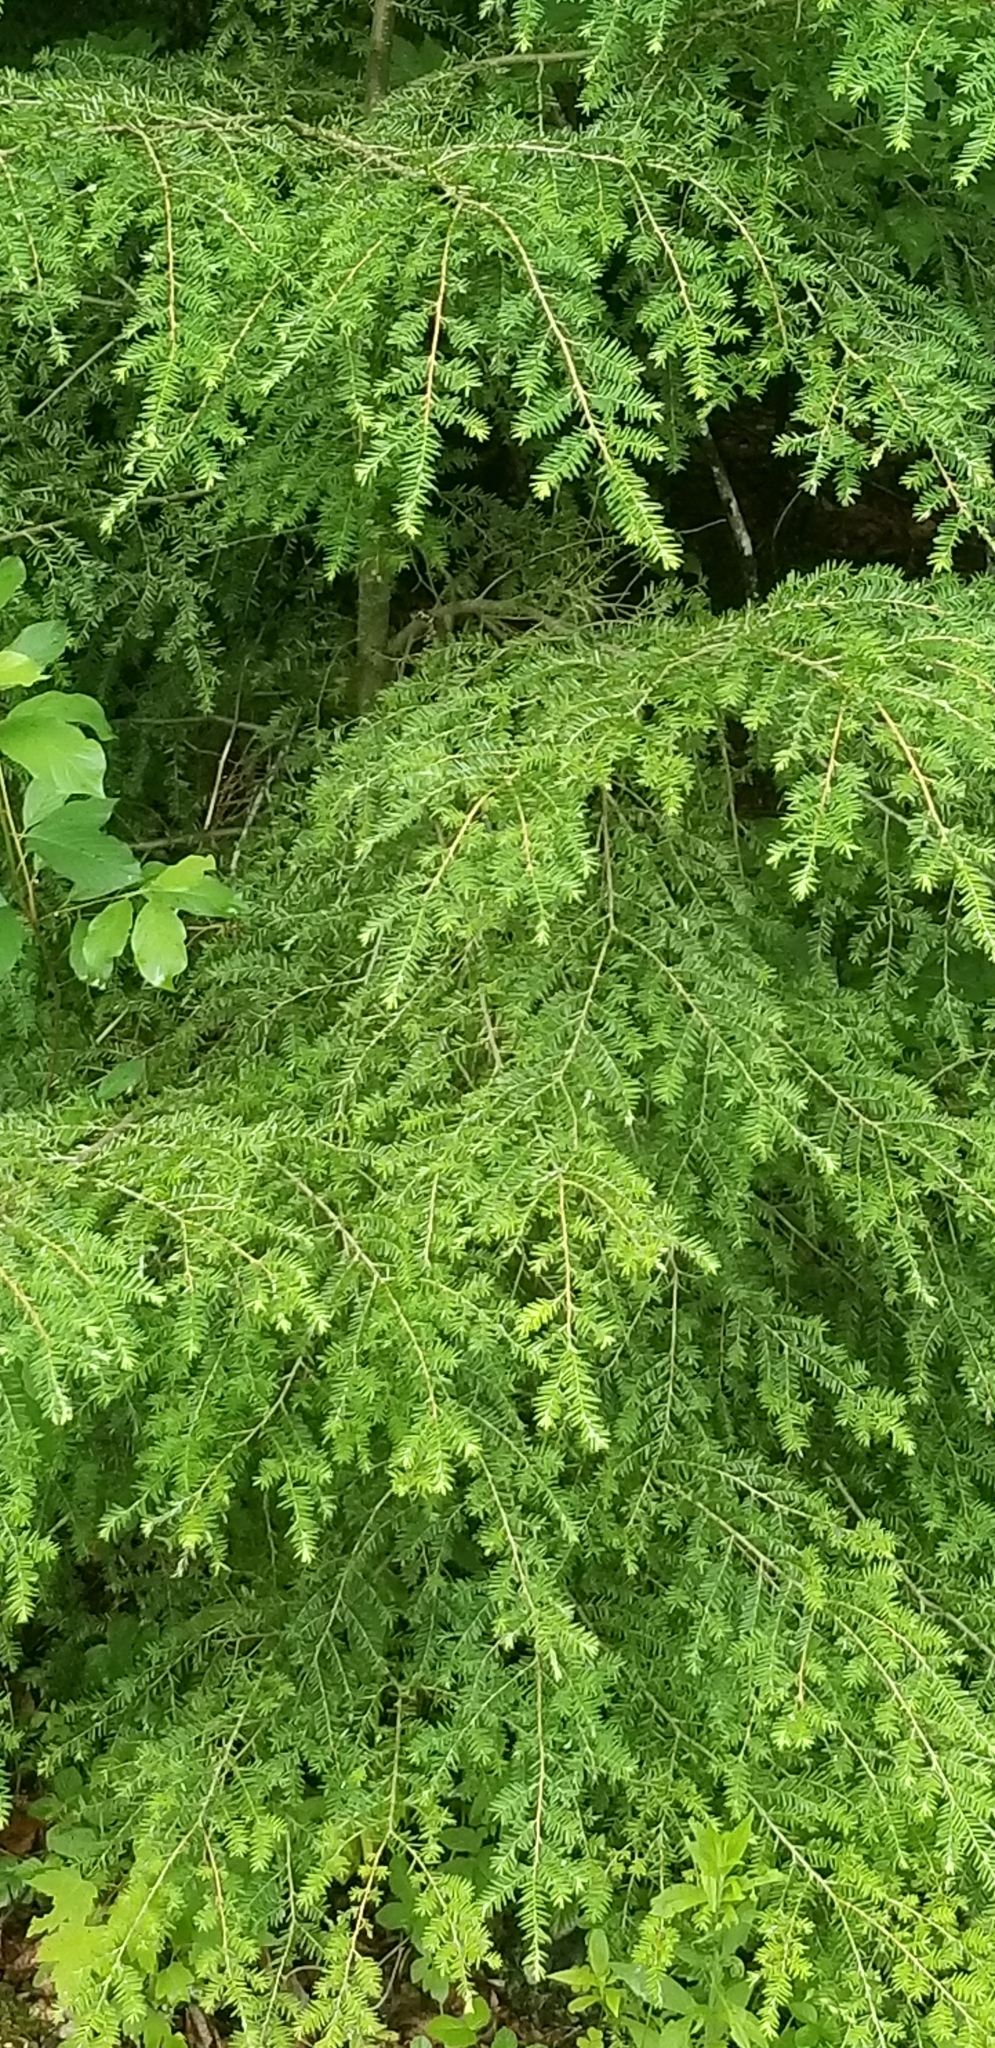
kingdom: Plantae
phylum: Tracheophyta
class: Pinopsida
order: Pinales
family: Pinaceae
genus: Tsuga
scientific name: Tsuga canadensis
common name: Eastern hemlock
